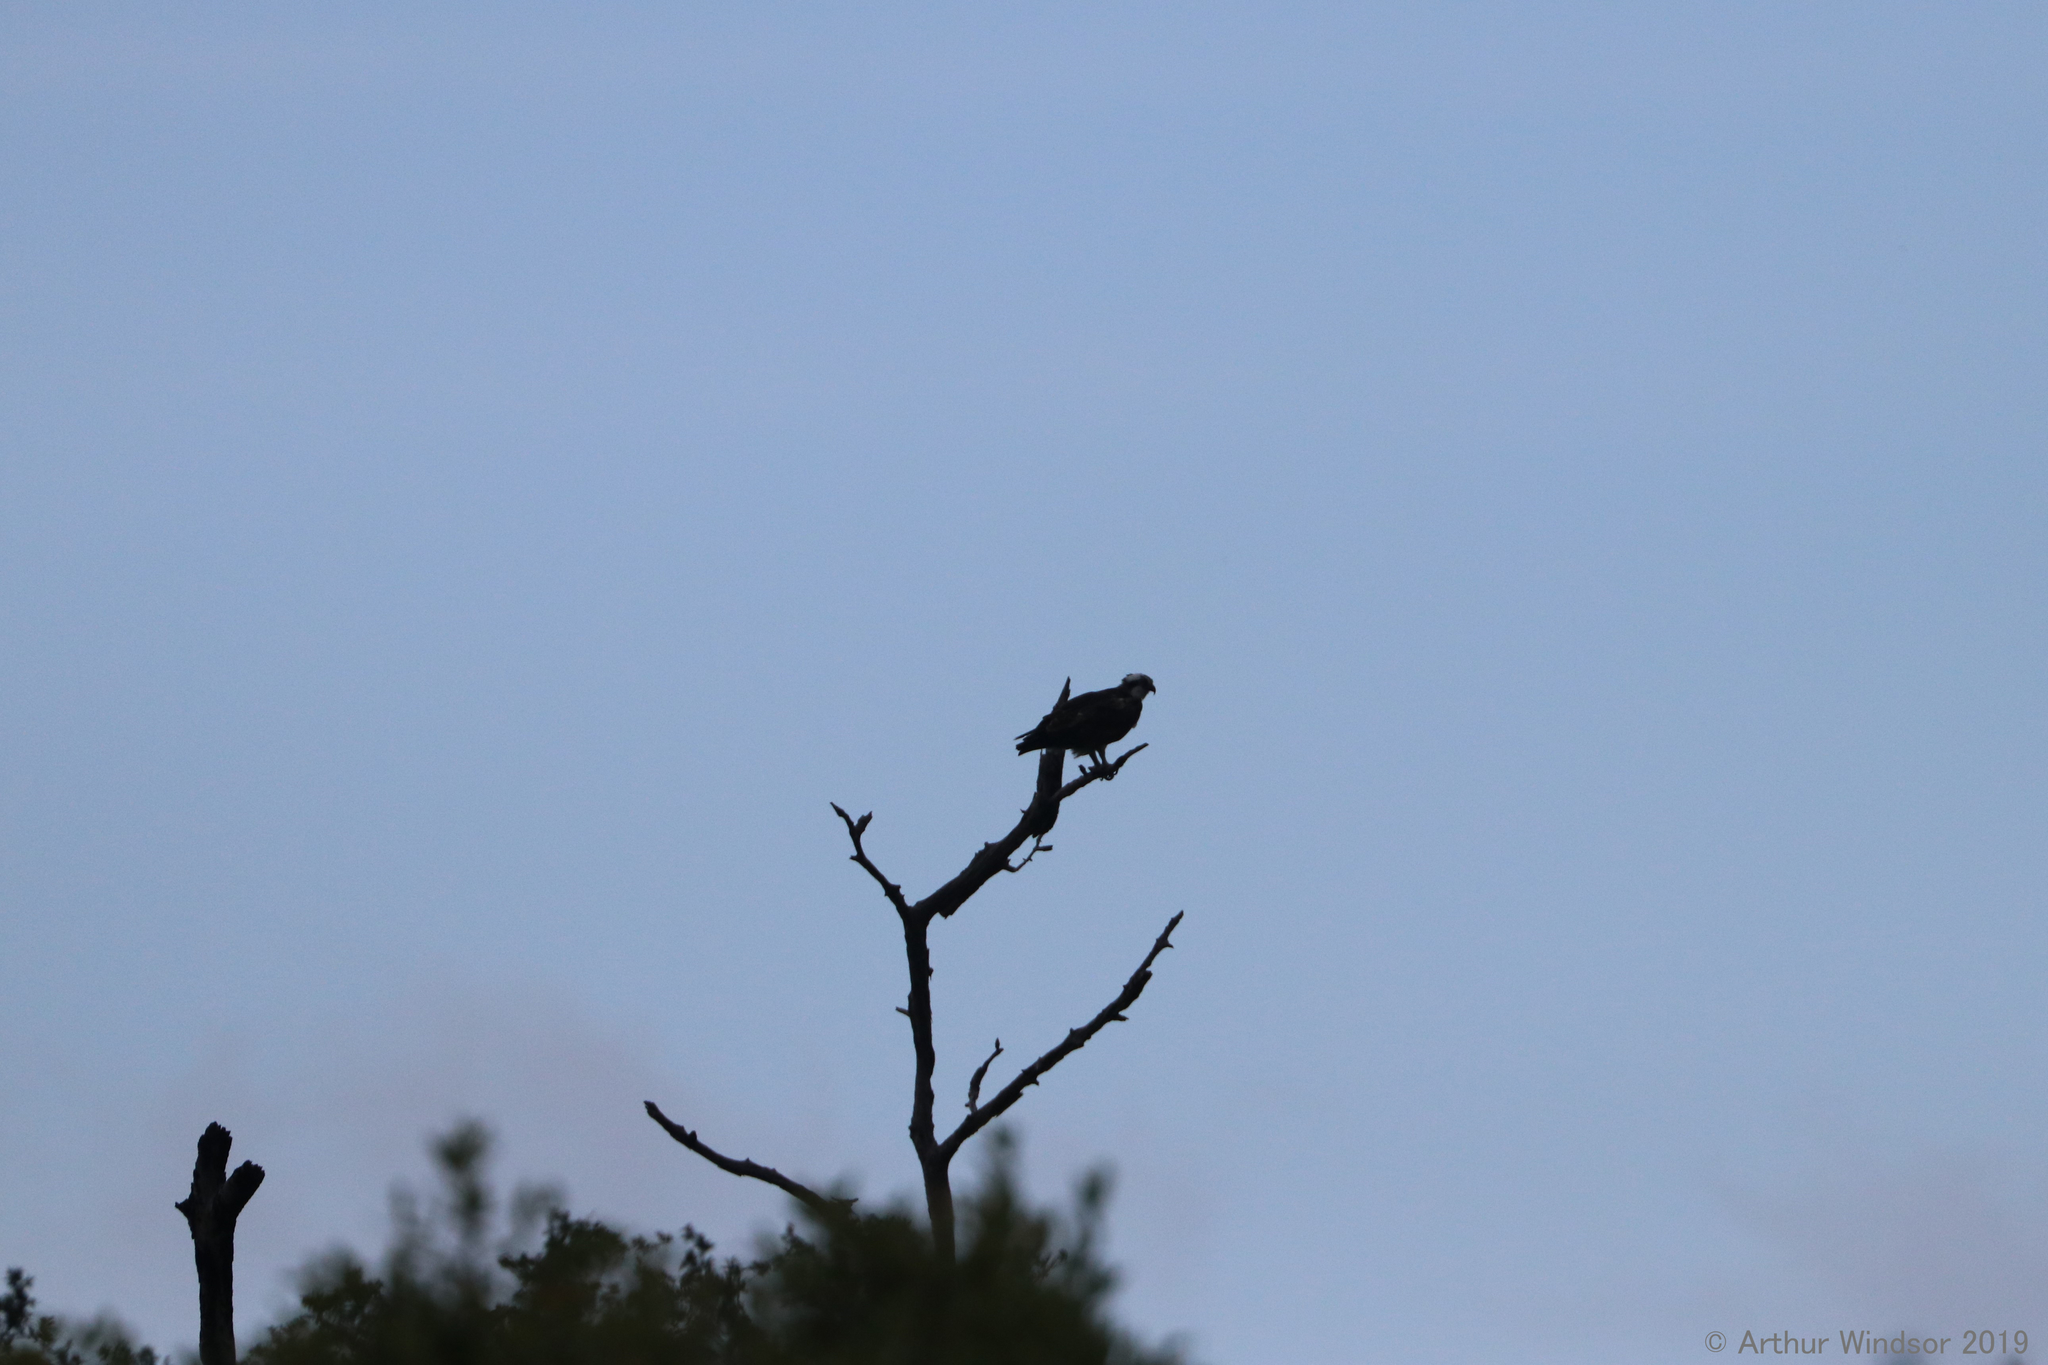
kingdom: Animalia
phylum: Chordata
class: Aves
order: Accipitriformes
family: Pandionidae
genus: Pandion
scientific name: Pandion haliaetus
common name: Osprey
